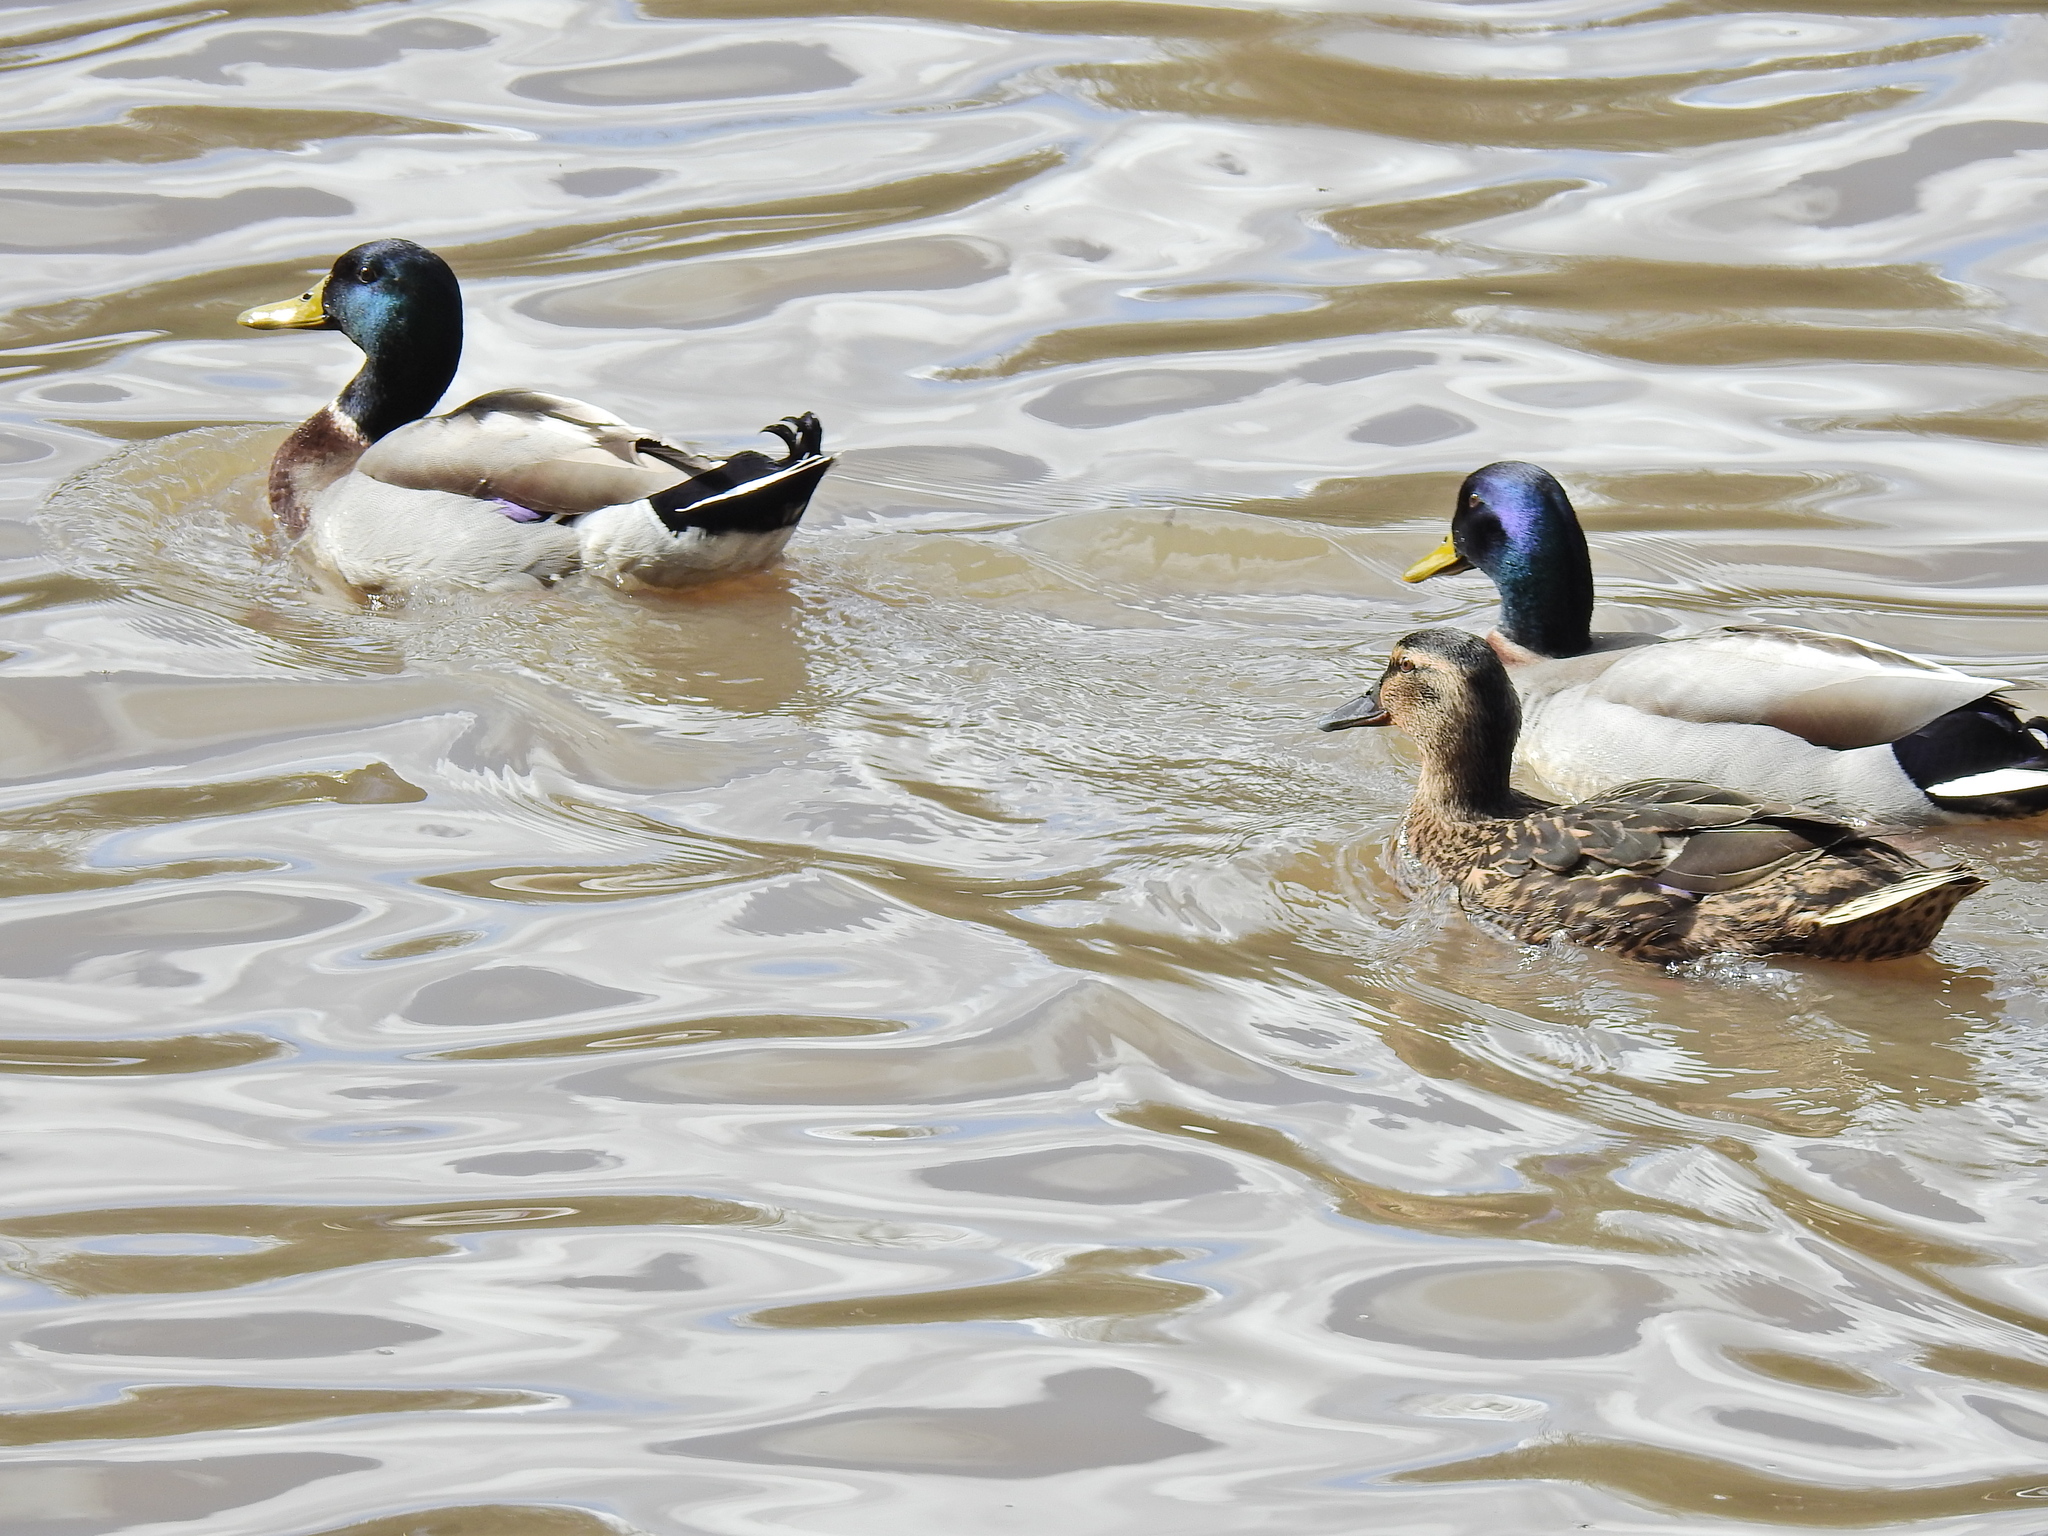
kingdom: Animalia
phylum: Chordata
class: Aves
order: Anseriformes
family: Anatidae
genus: Anas
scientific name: Anas platyrhynchos
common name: Mallard
